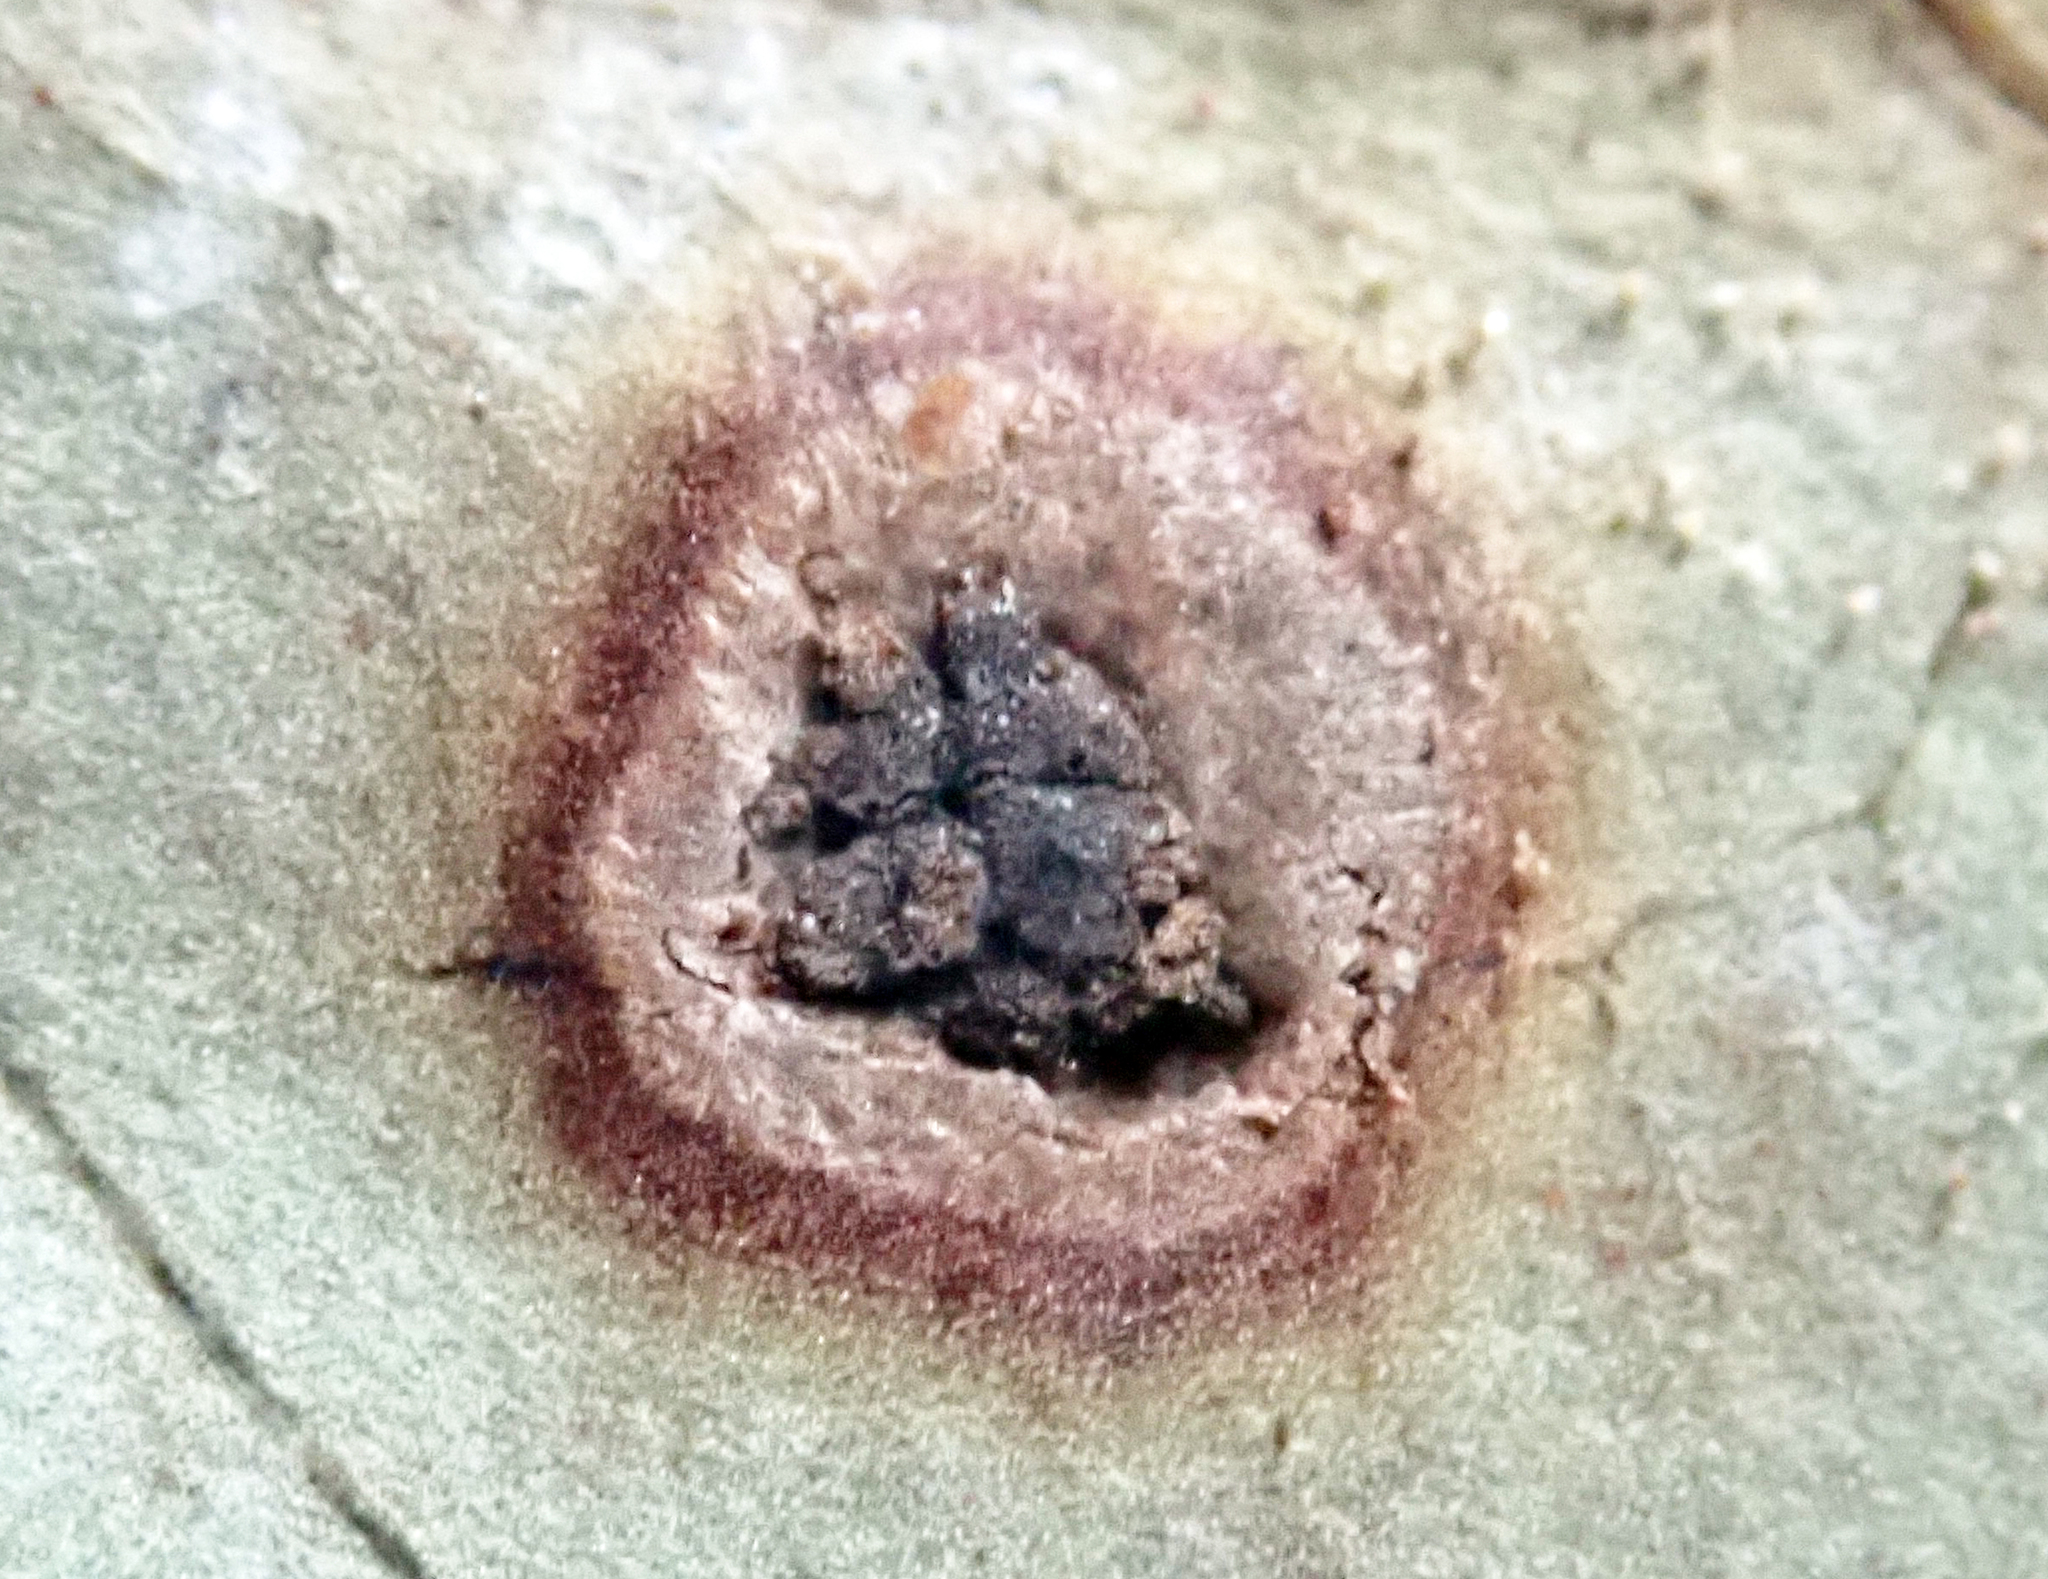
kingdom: Fungi
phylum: Basidiomycota
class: Pucciniomycetes
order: Pucciniales
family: Pucciniaceae
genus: Puccinia
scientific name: Puccinia coprosmae
